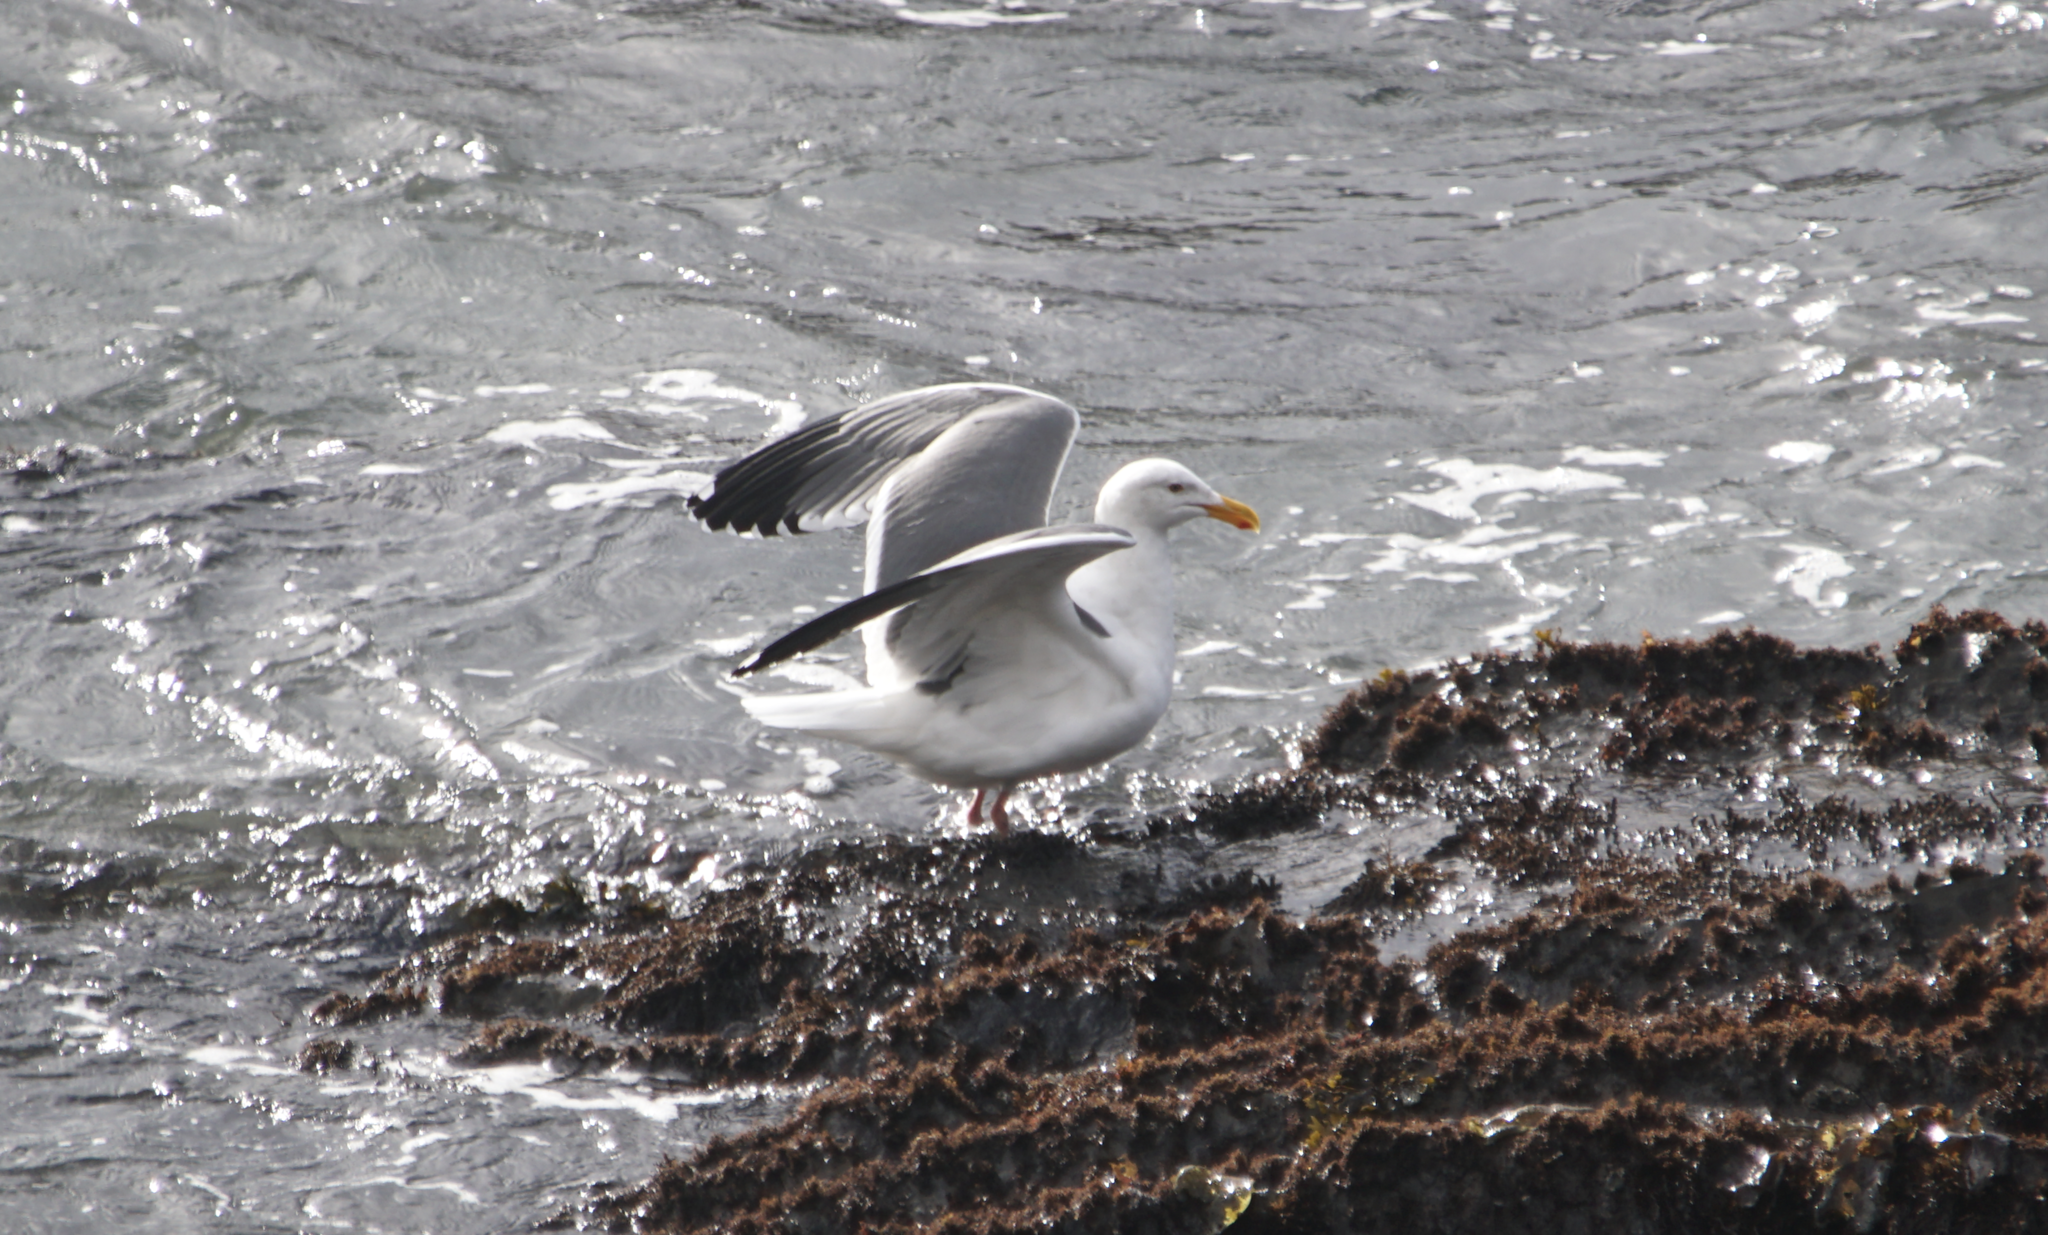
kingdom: Animalia
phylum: Chordata
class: Aves
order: Charadriiformes
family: Laridae
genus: Larus
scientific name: Larus occidentalis
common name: Western gull
